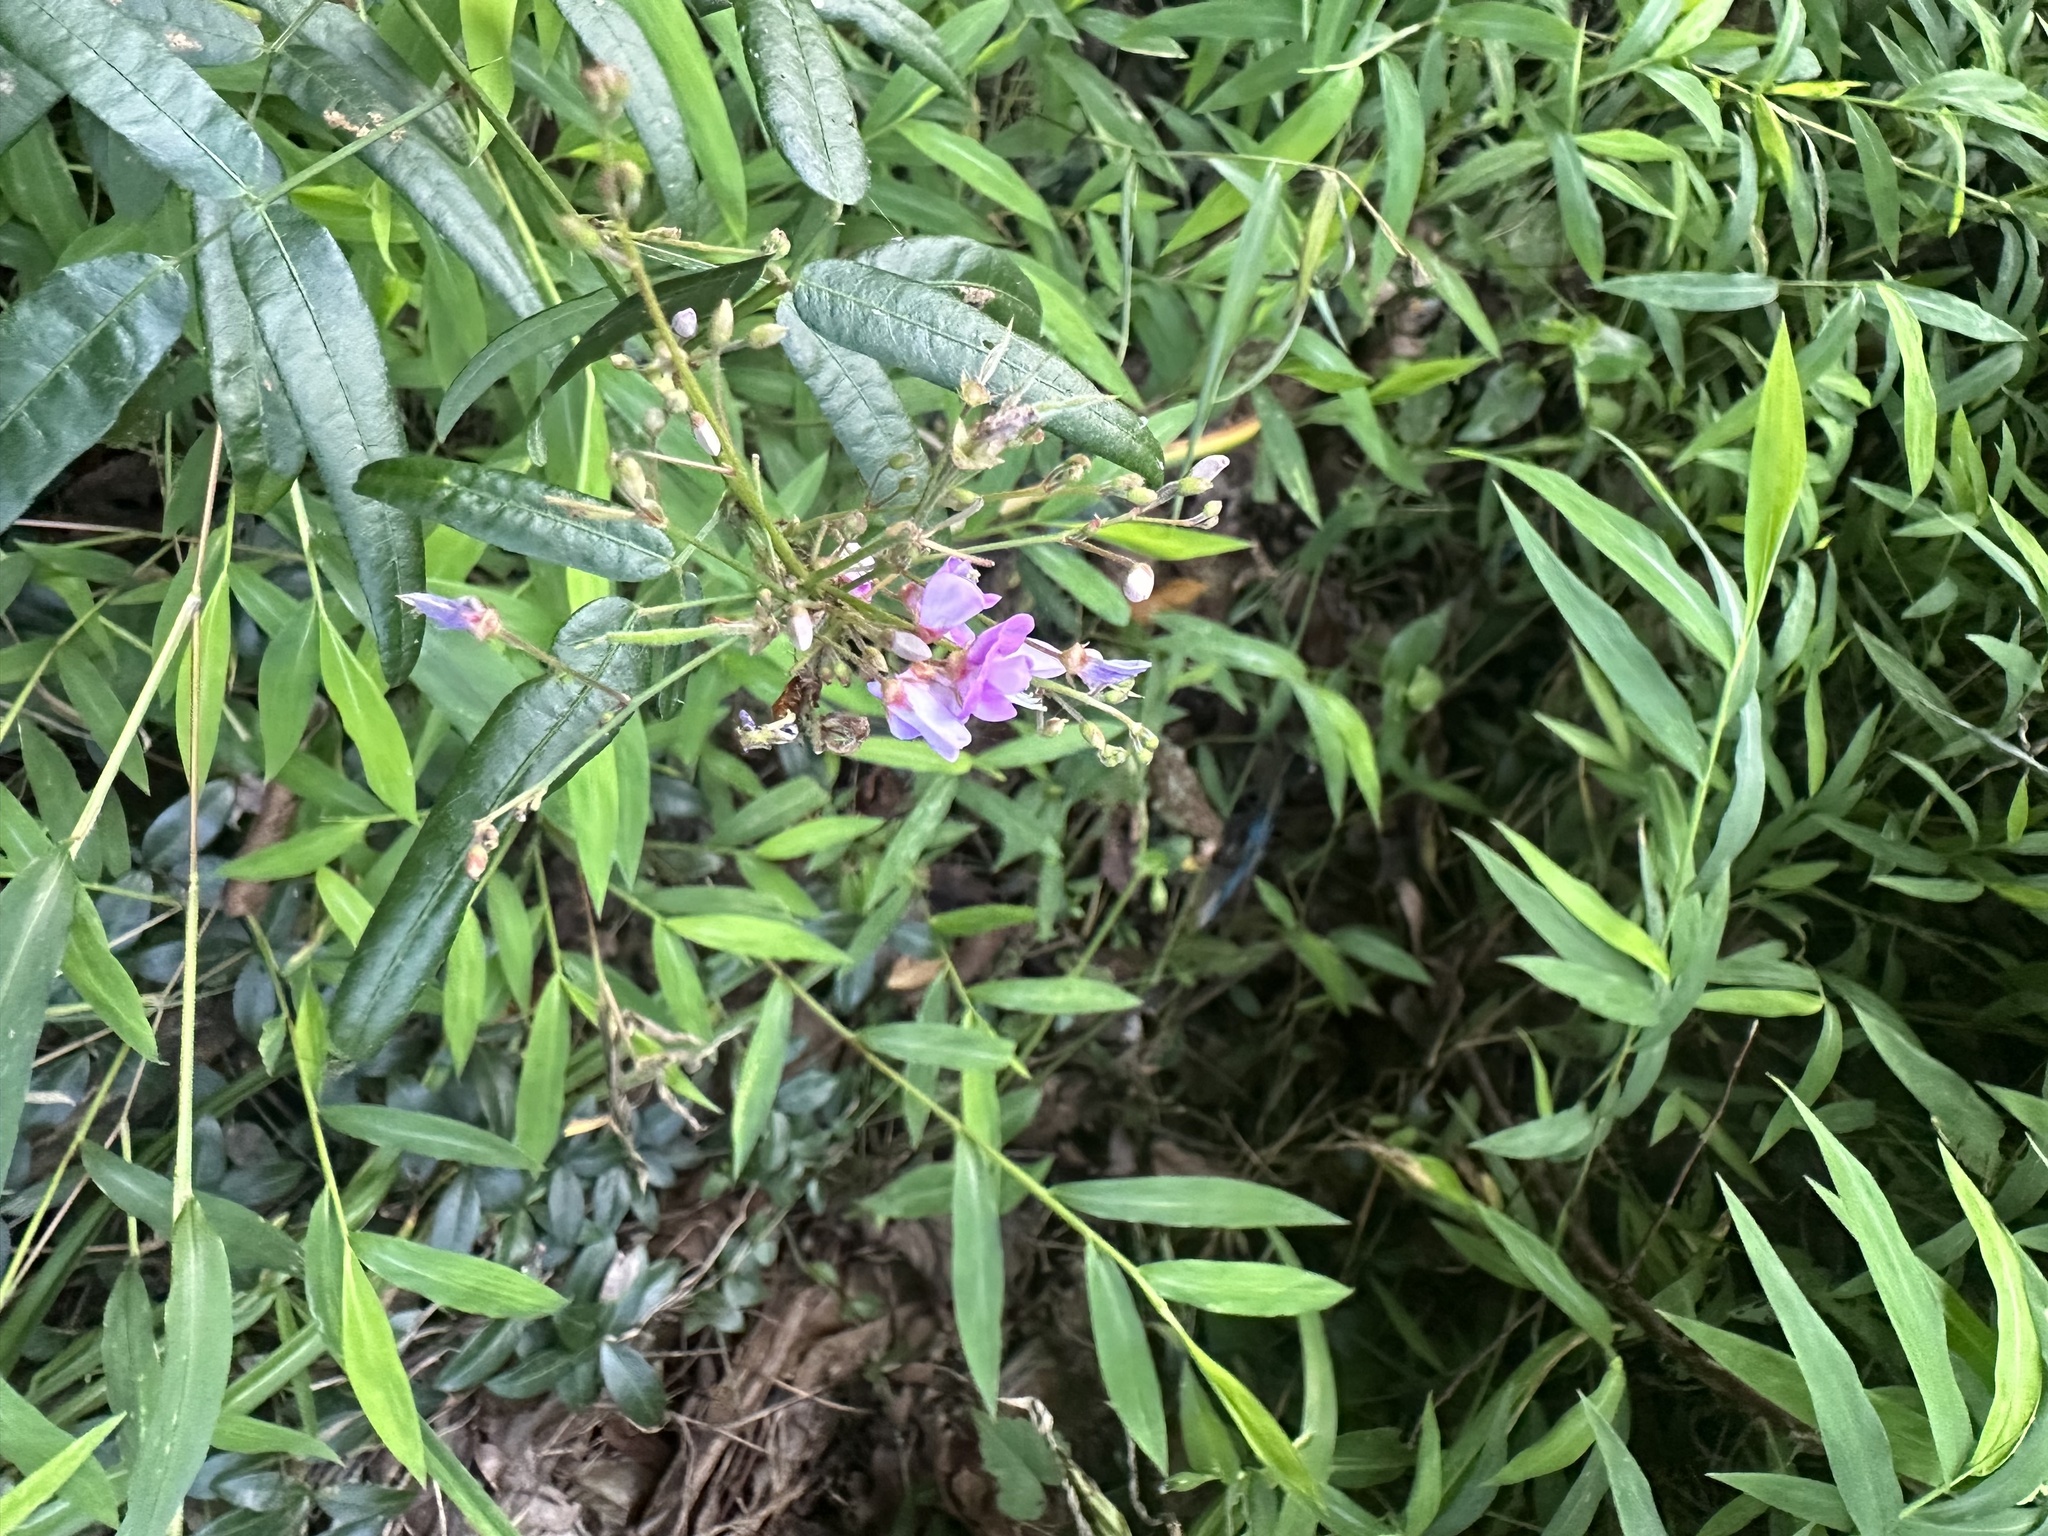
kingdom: Plantae
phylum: Tracheophyta
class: Magnoliopsida
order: Fabales
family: Fabaceae
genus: Desmodium
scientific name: Desmodium paniculatum
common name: Panicled tick-clover
